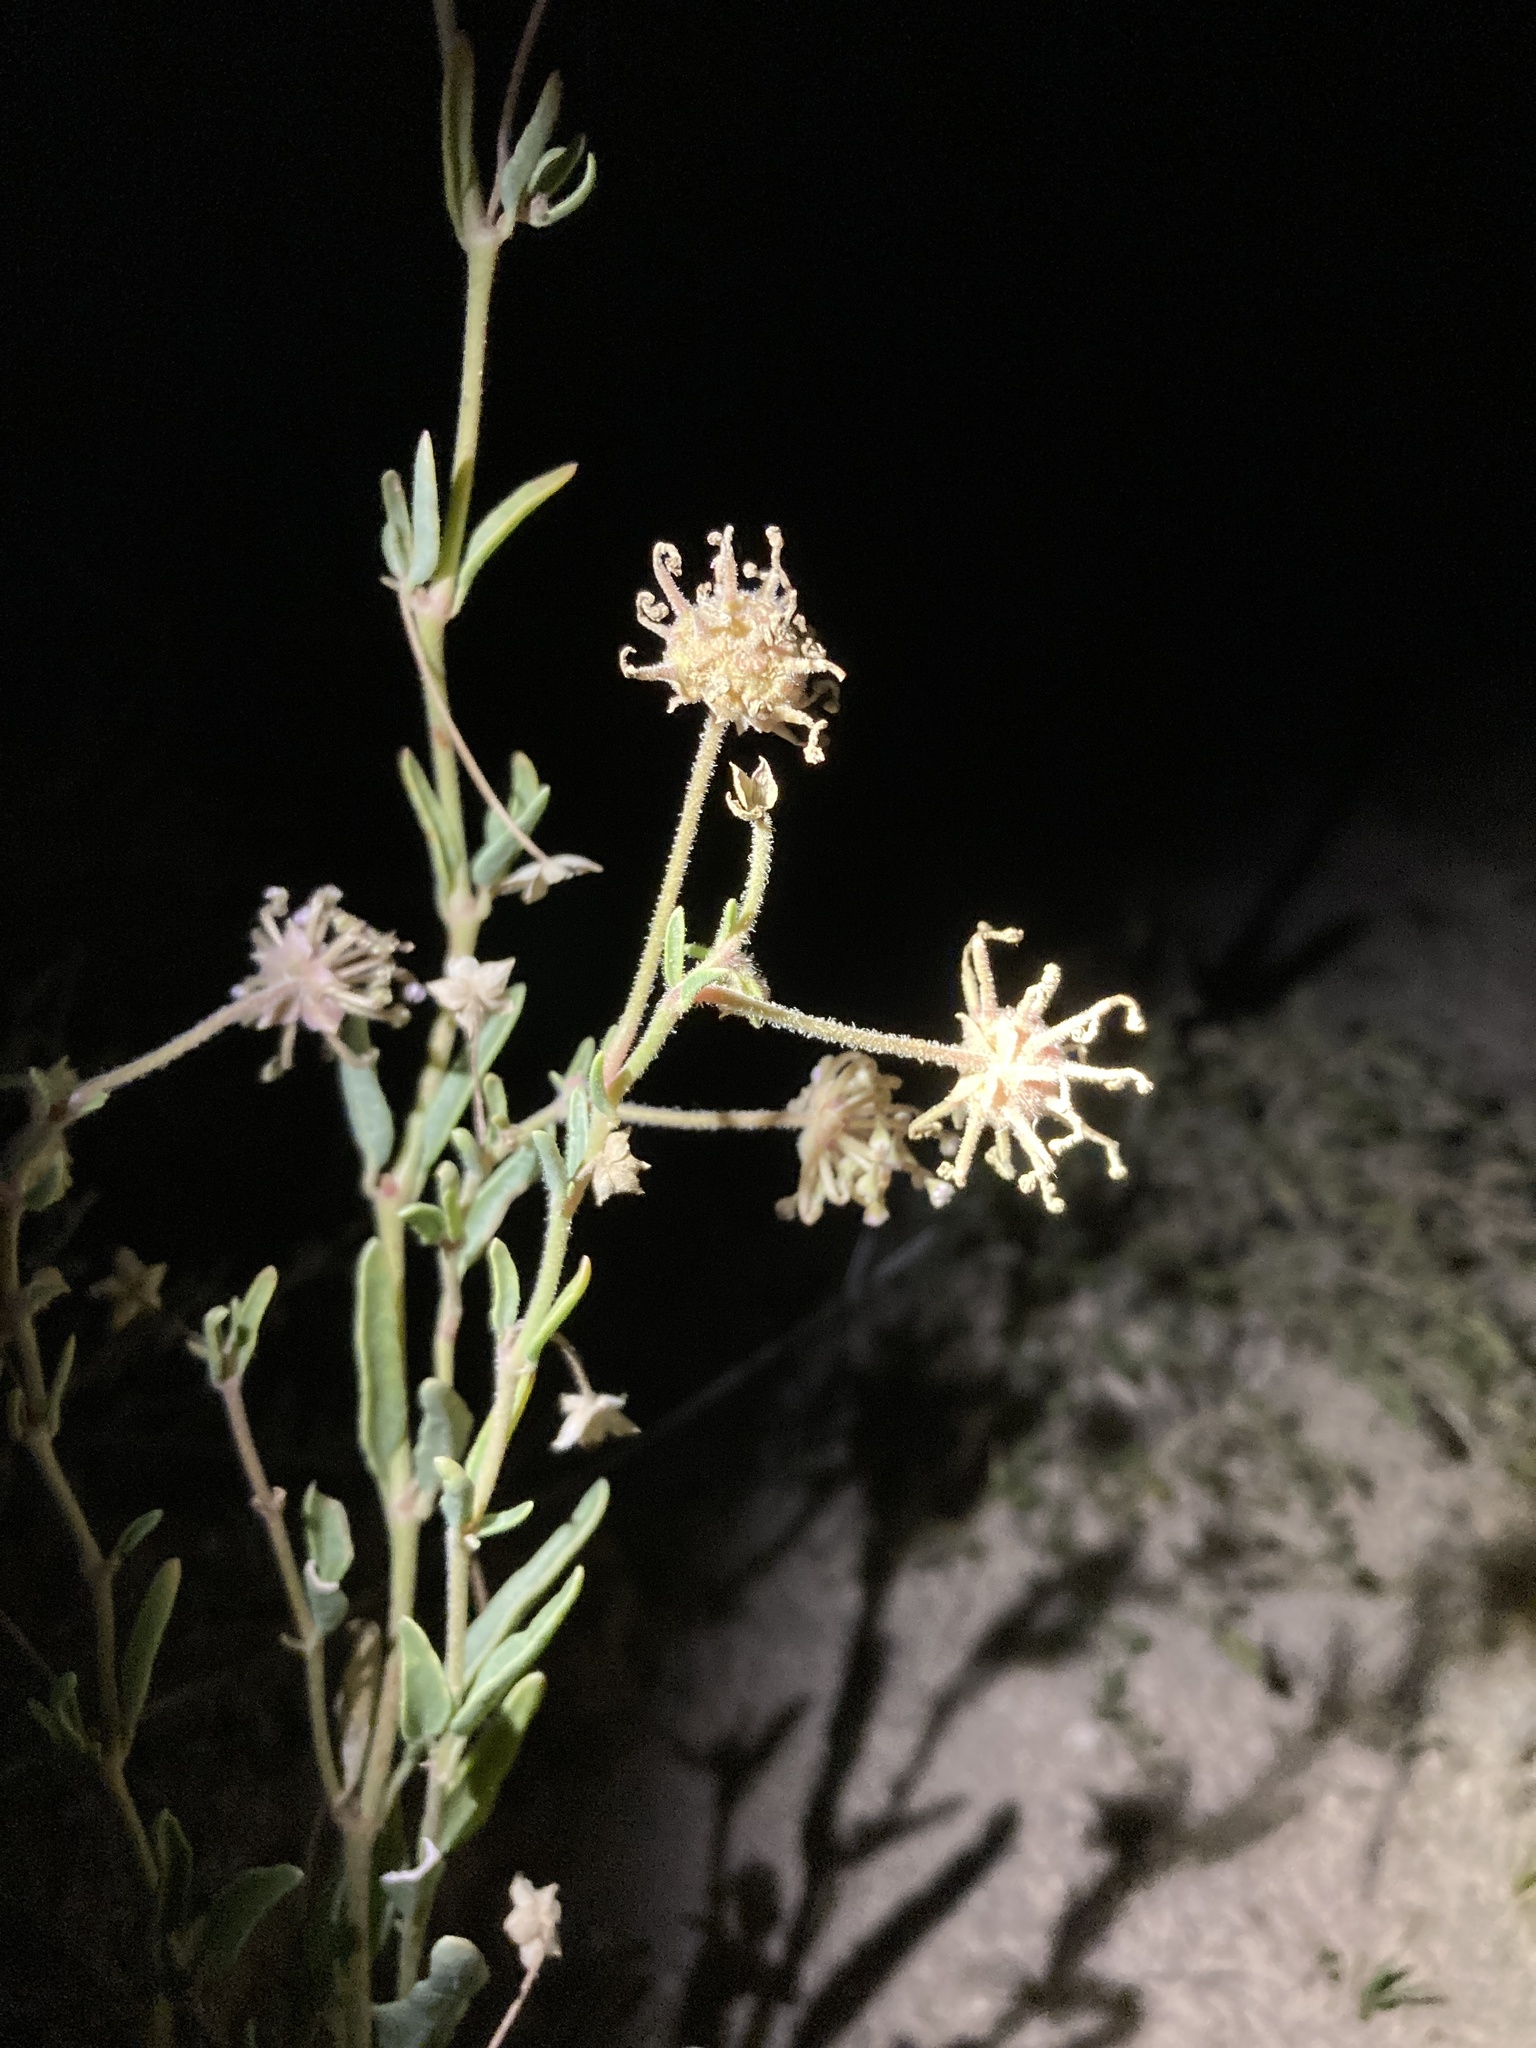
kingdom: Plantae
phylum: Tracheophyta
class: Magnoliopsida
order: Caryophyllales
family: Nyctaginaceae
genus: Abronia
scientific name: Abronia carletonii
